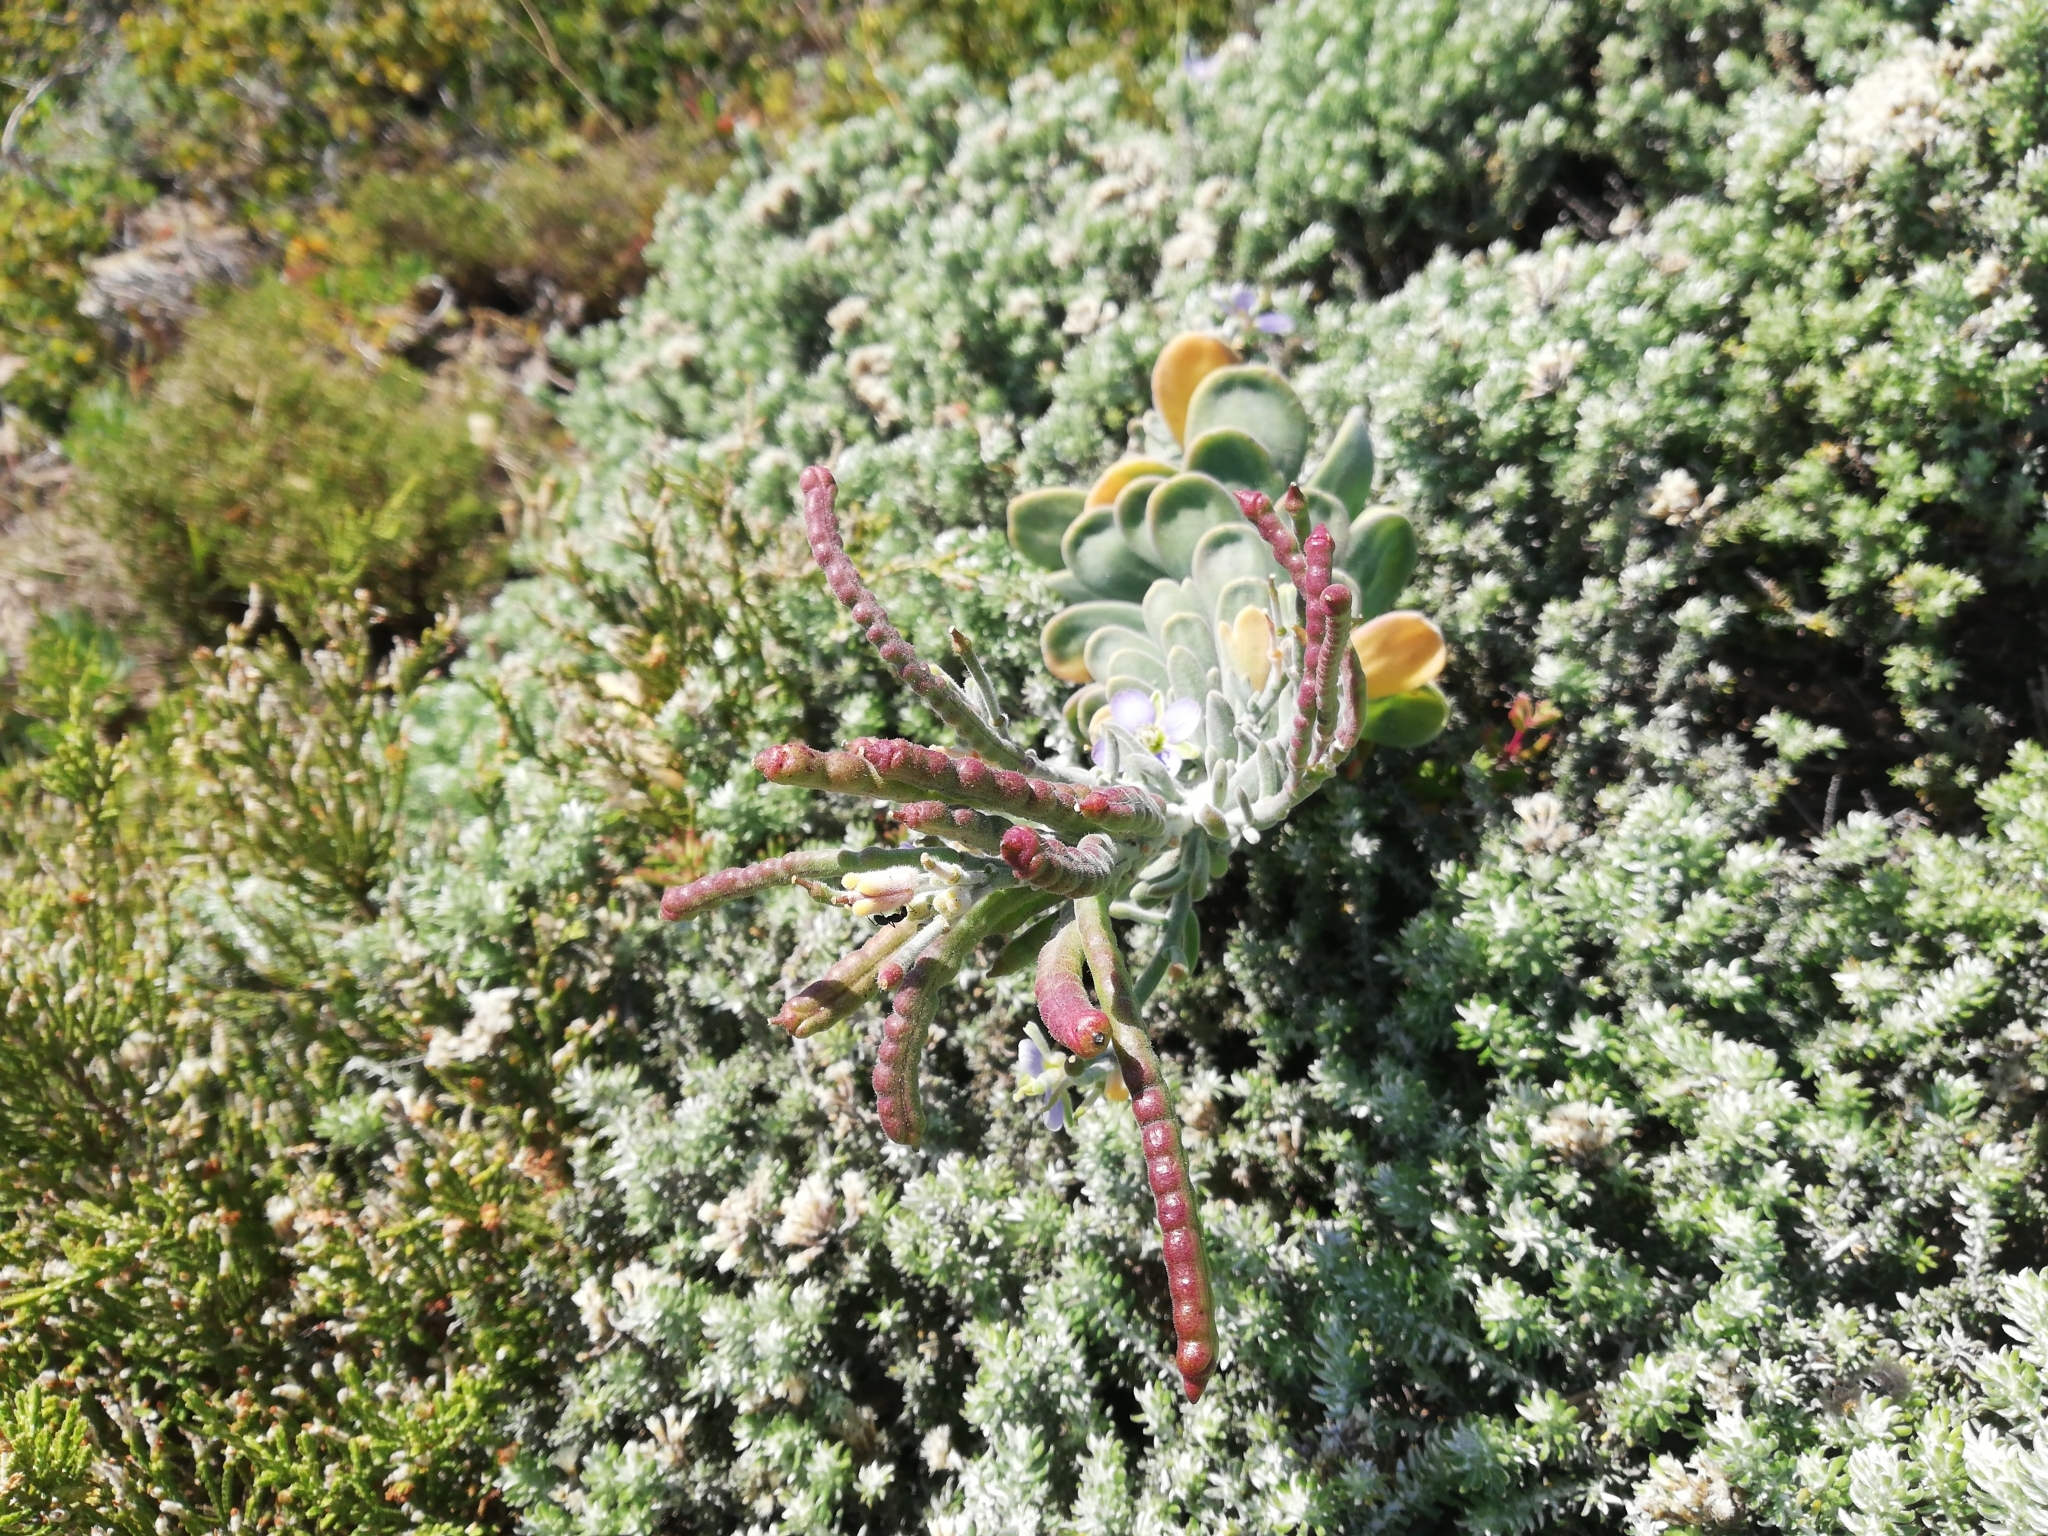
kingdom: Plantae
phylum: Tracheophyta
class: Magnoliopsida
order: Brassicales
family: Brassicaceae
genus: Heliophila
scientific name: Heliophila cinerea
